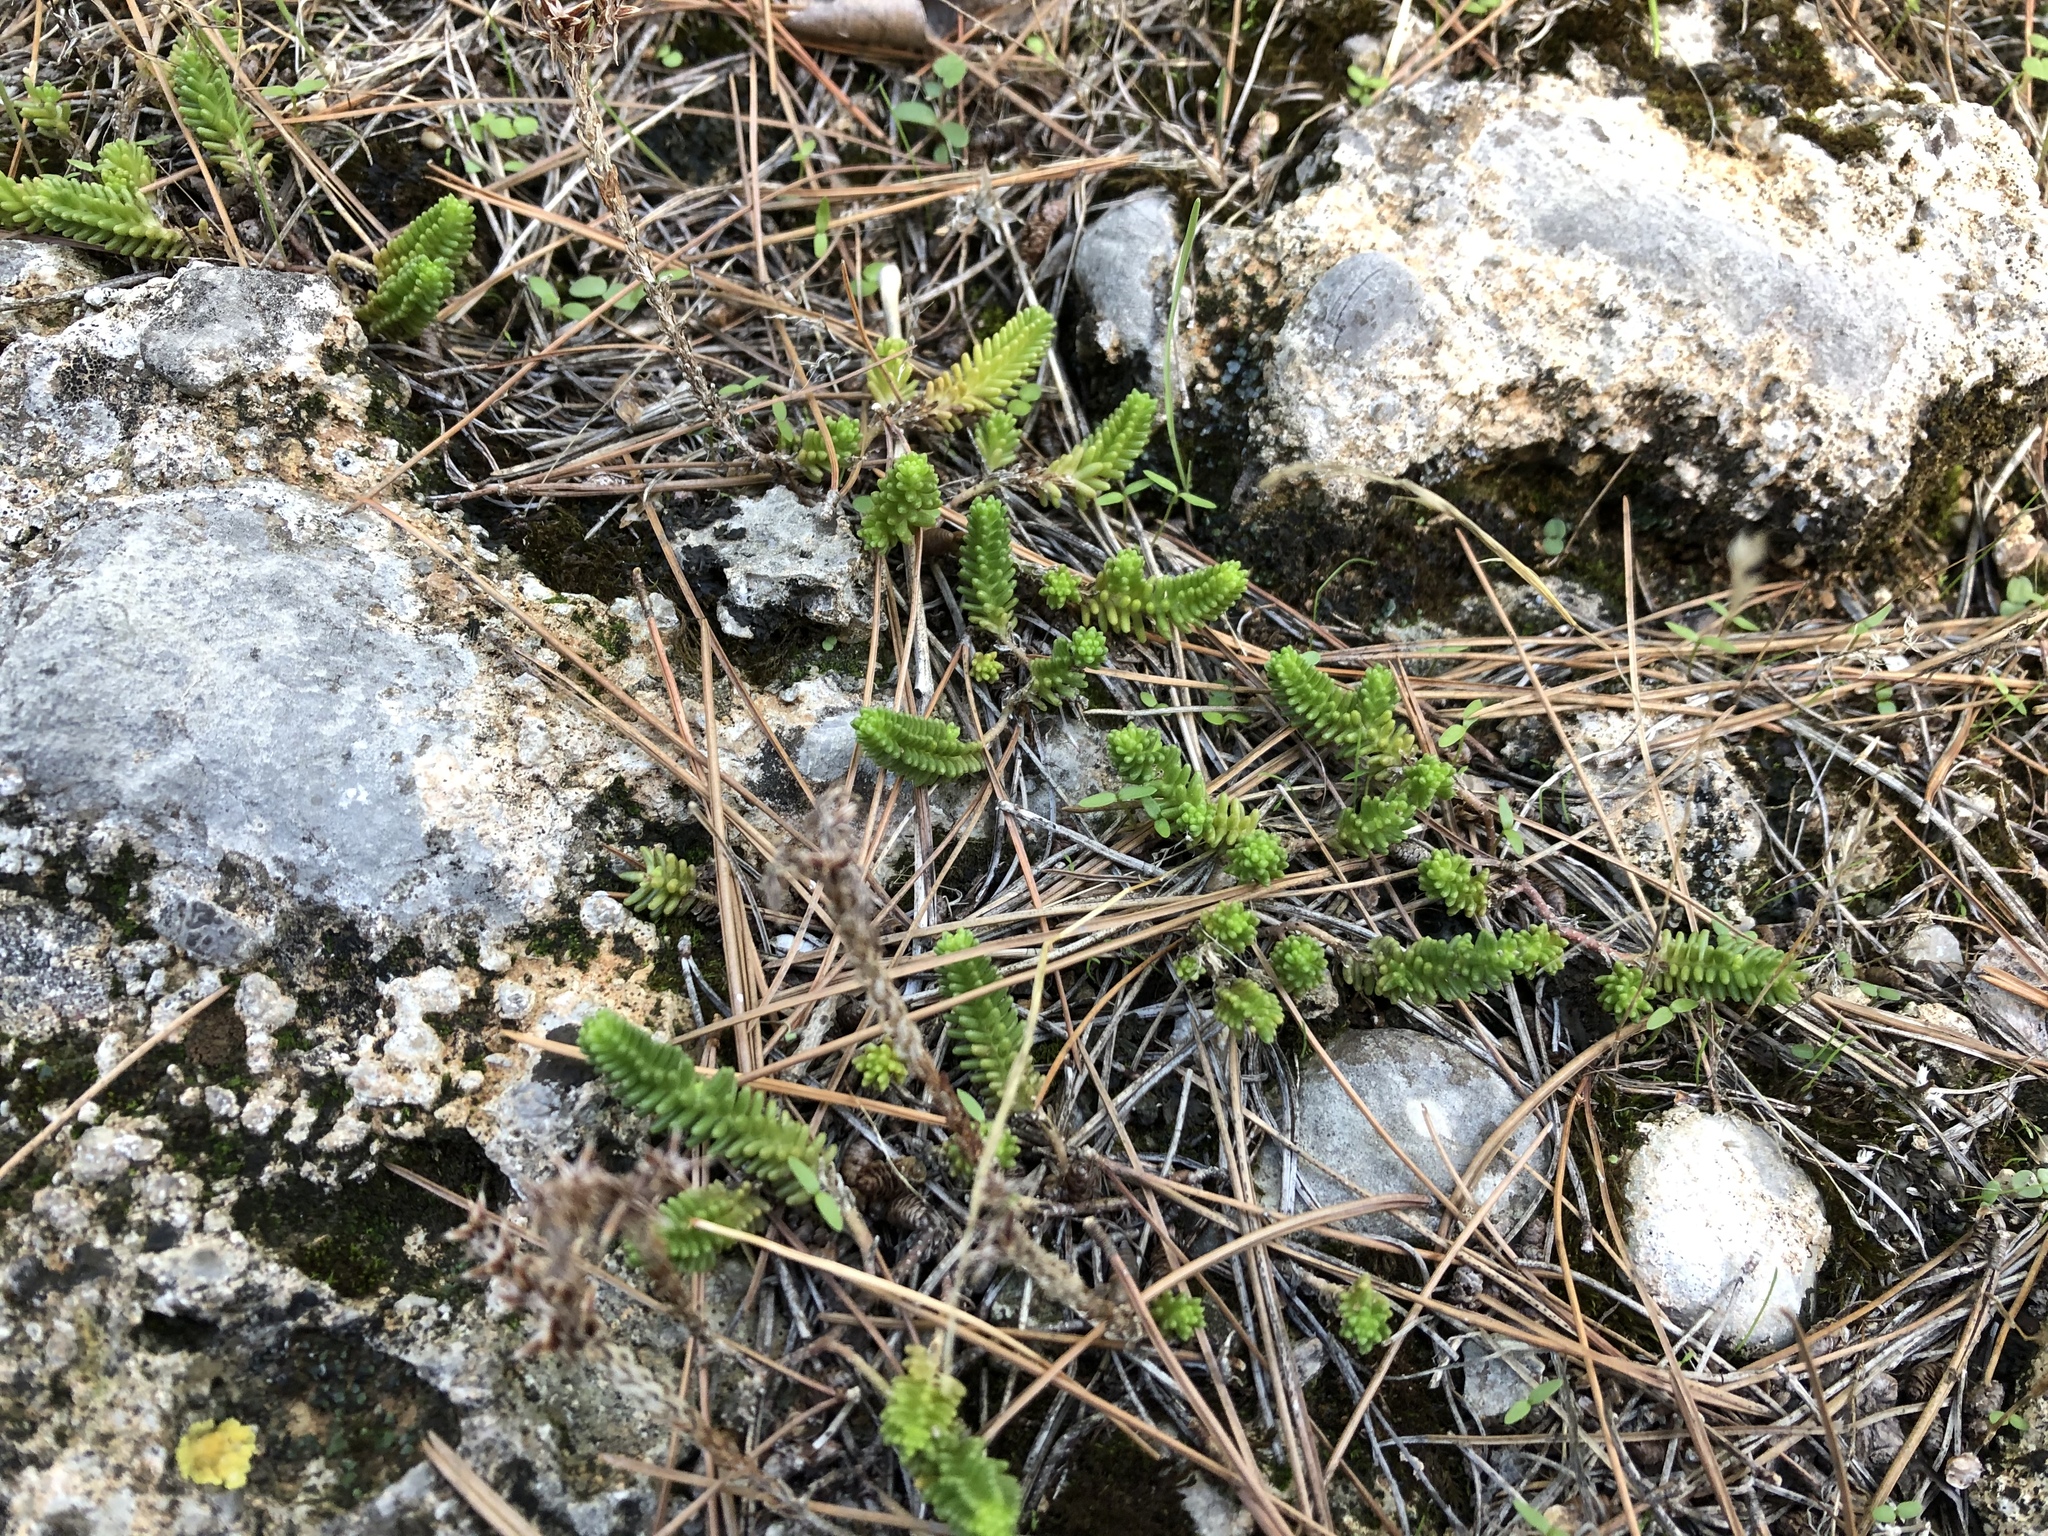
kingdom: Plantae
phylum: Tracheophyta
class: Magnoliopsida
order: Saxifragales
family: Crassulaceae
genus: Sedum
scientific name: Sedum sexangulare
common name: Tasteless stonecrop
